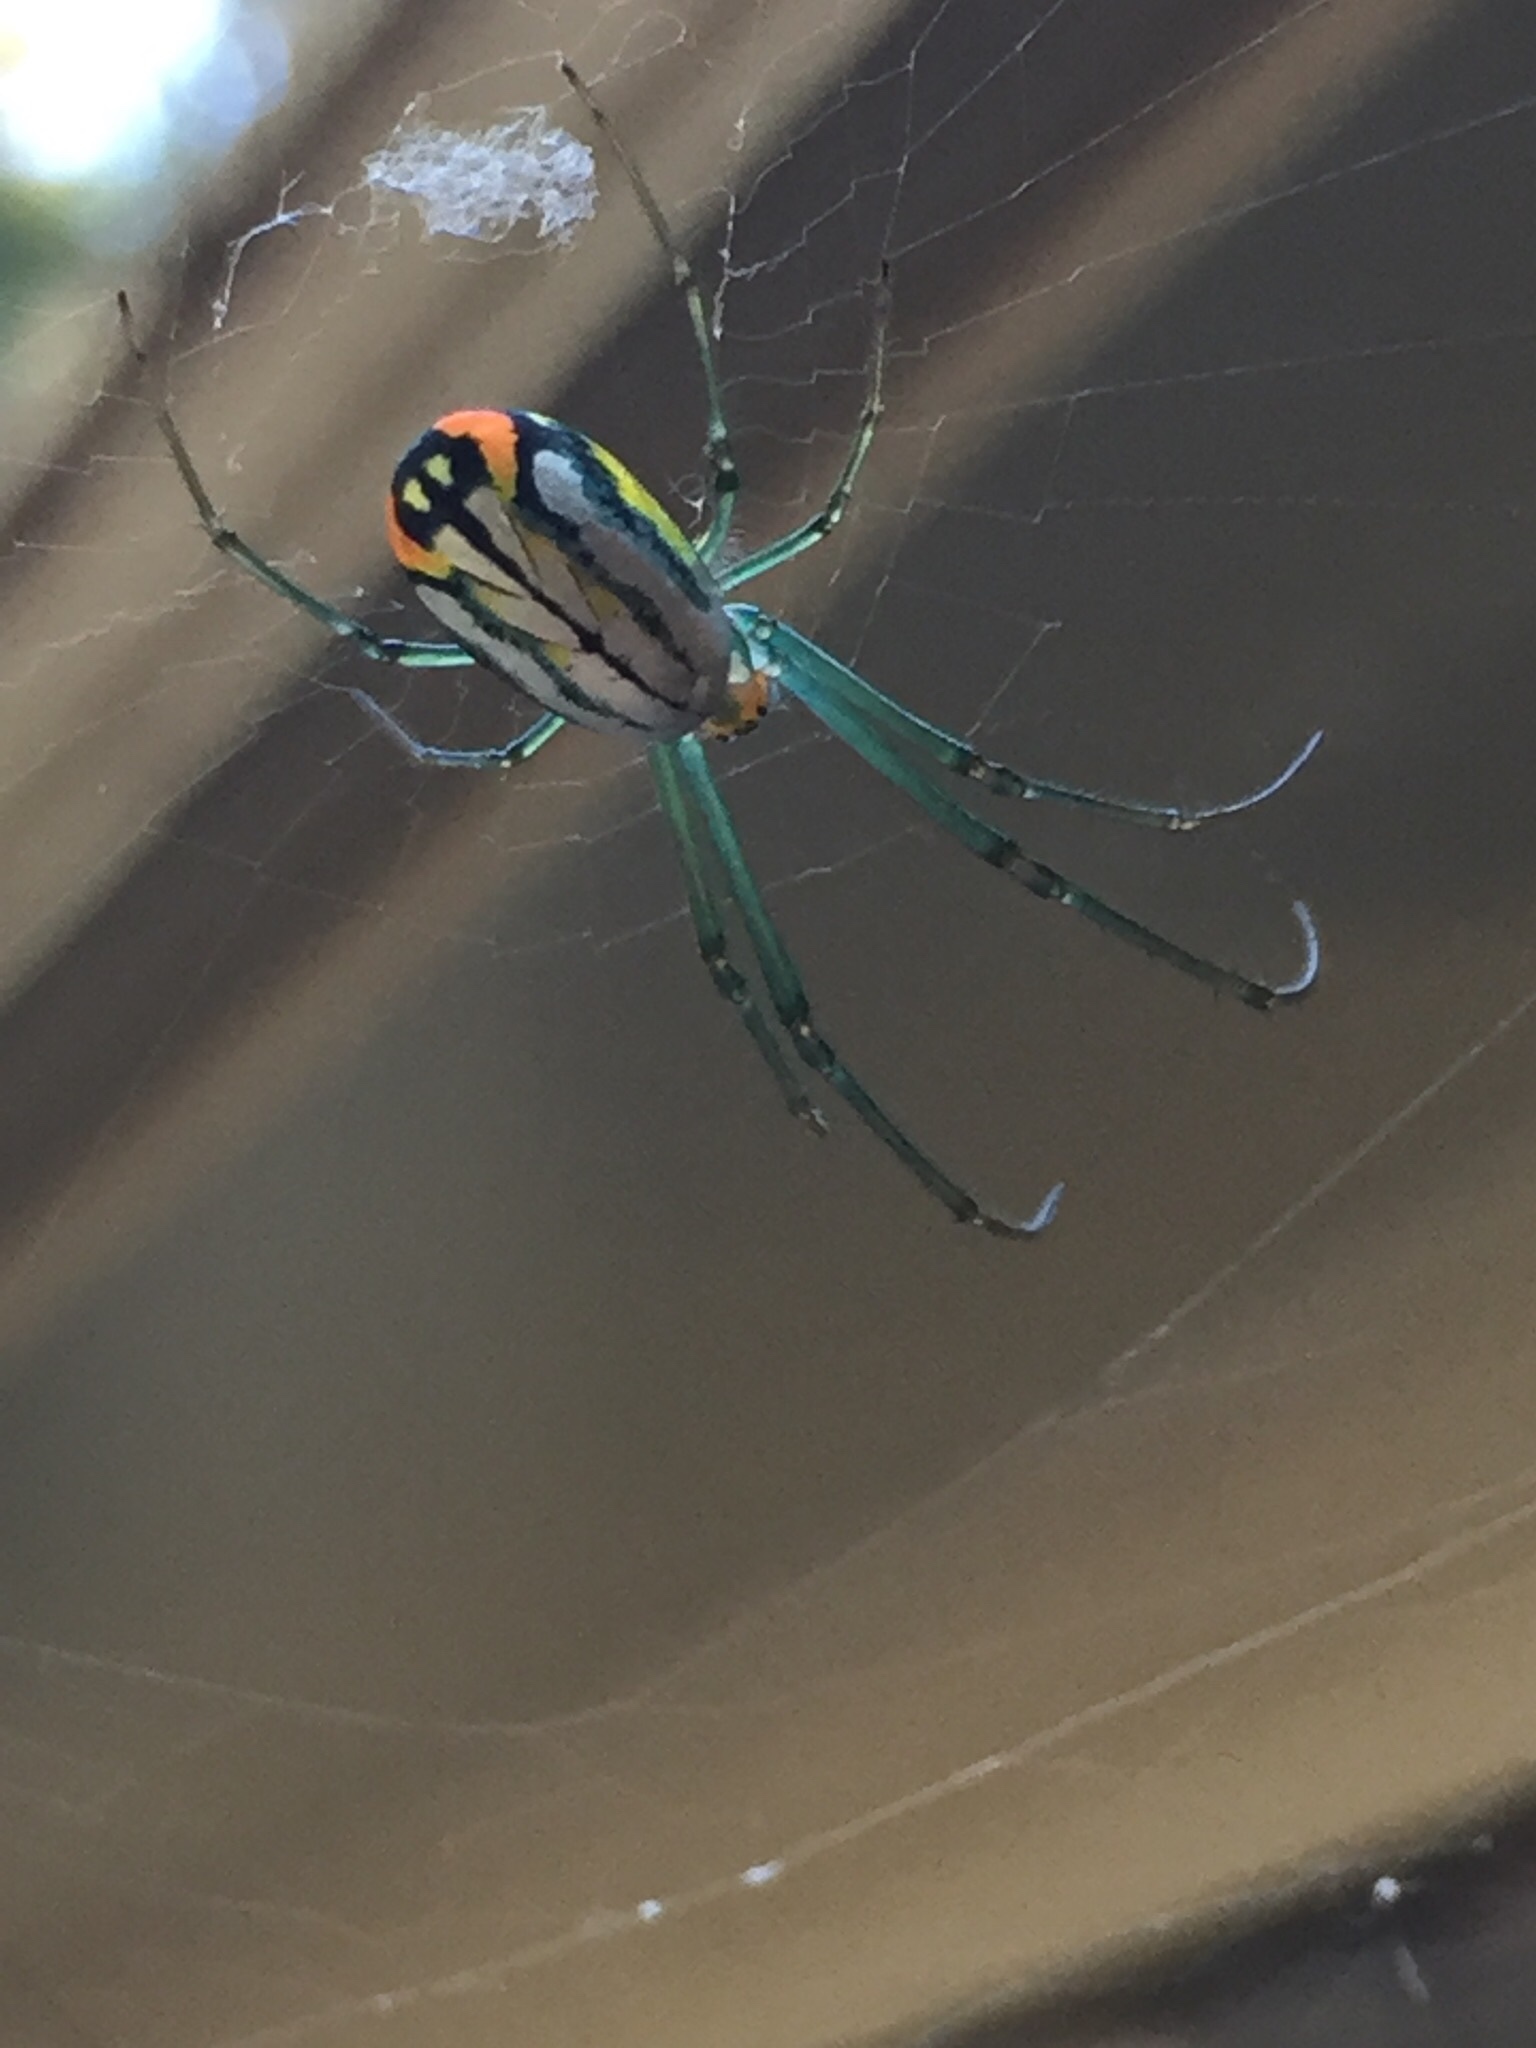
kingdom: Animalia
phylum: Arthropoda
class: Arachnida
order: Araneae
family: Tetragnathidae
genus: Leucauge
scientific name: Leucauge argyrobapta
